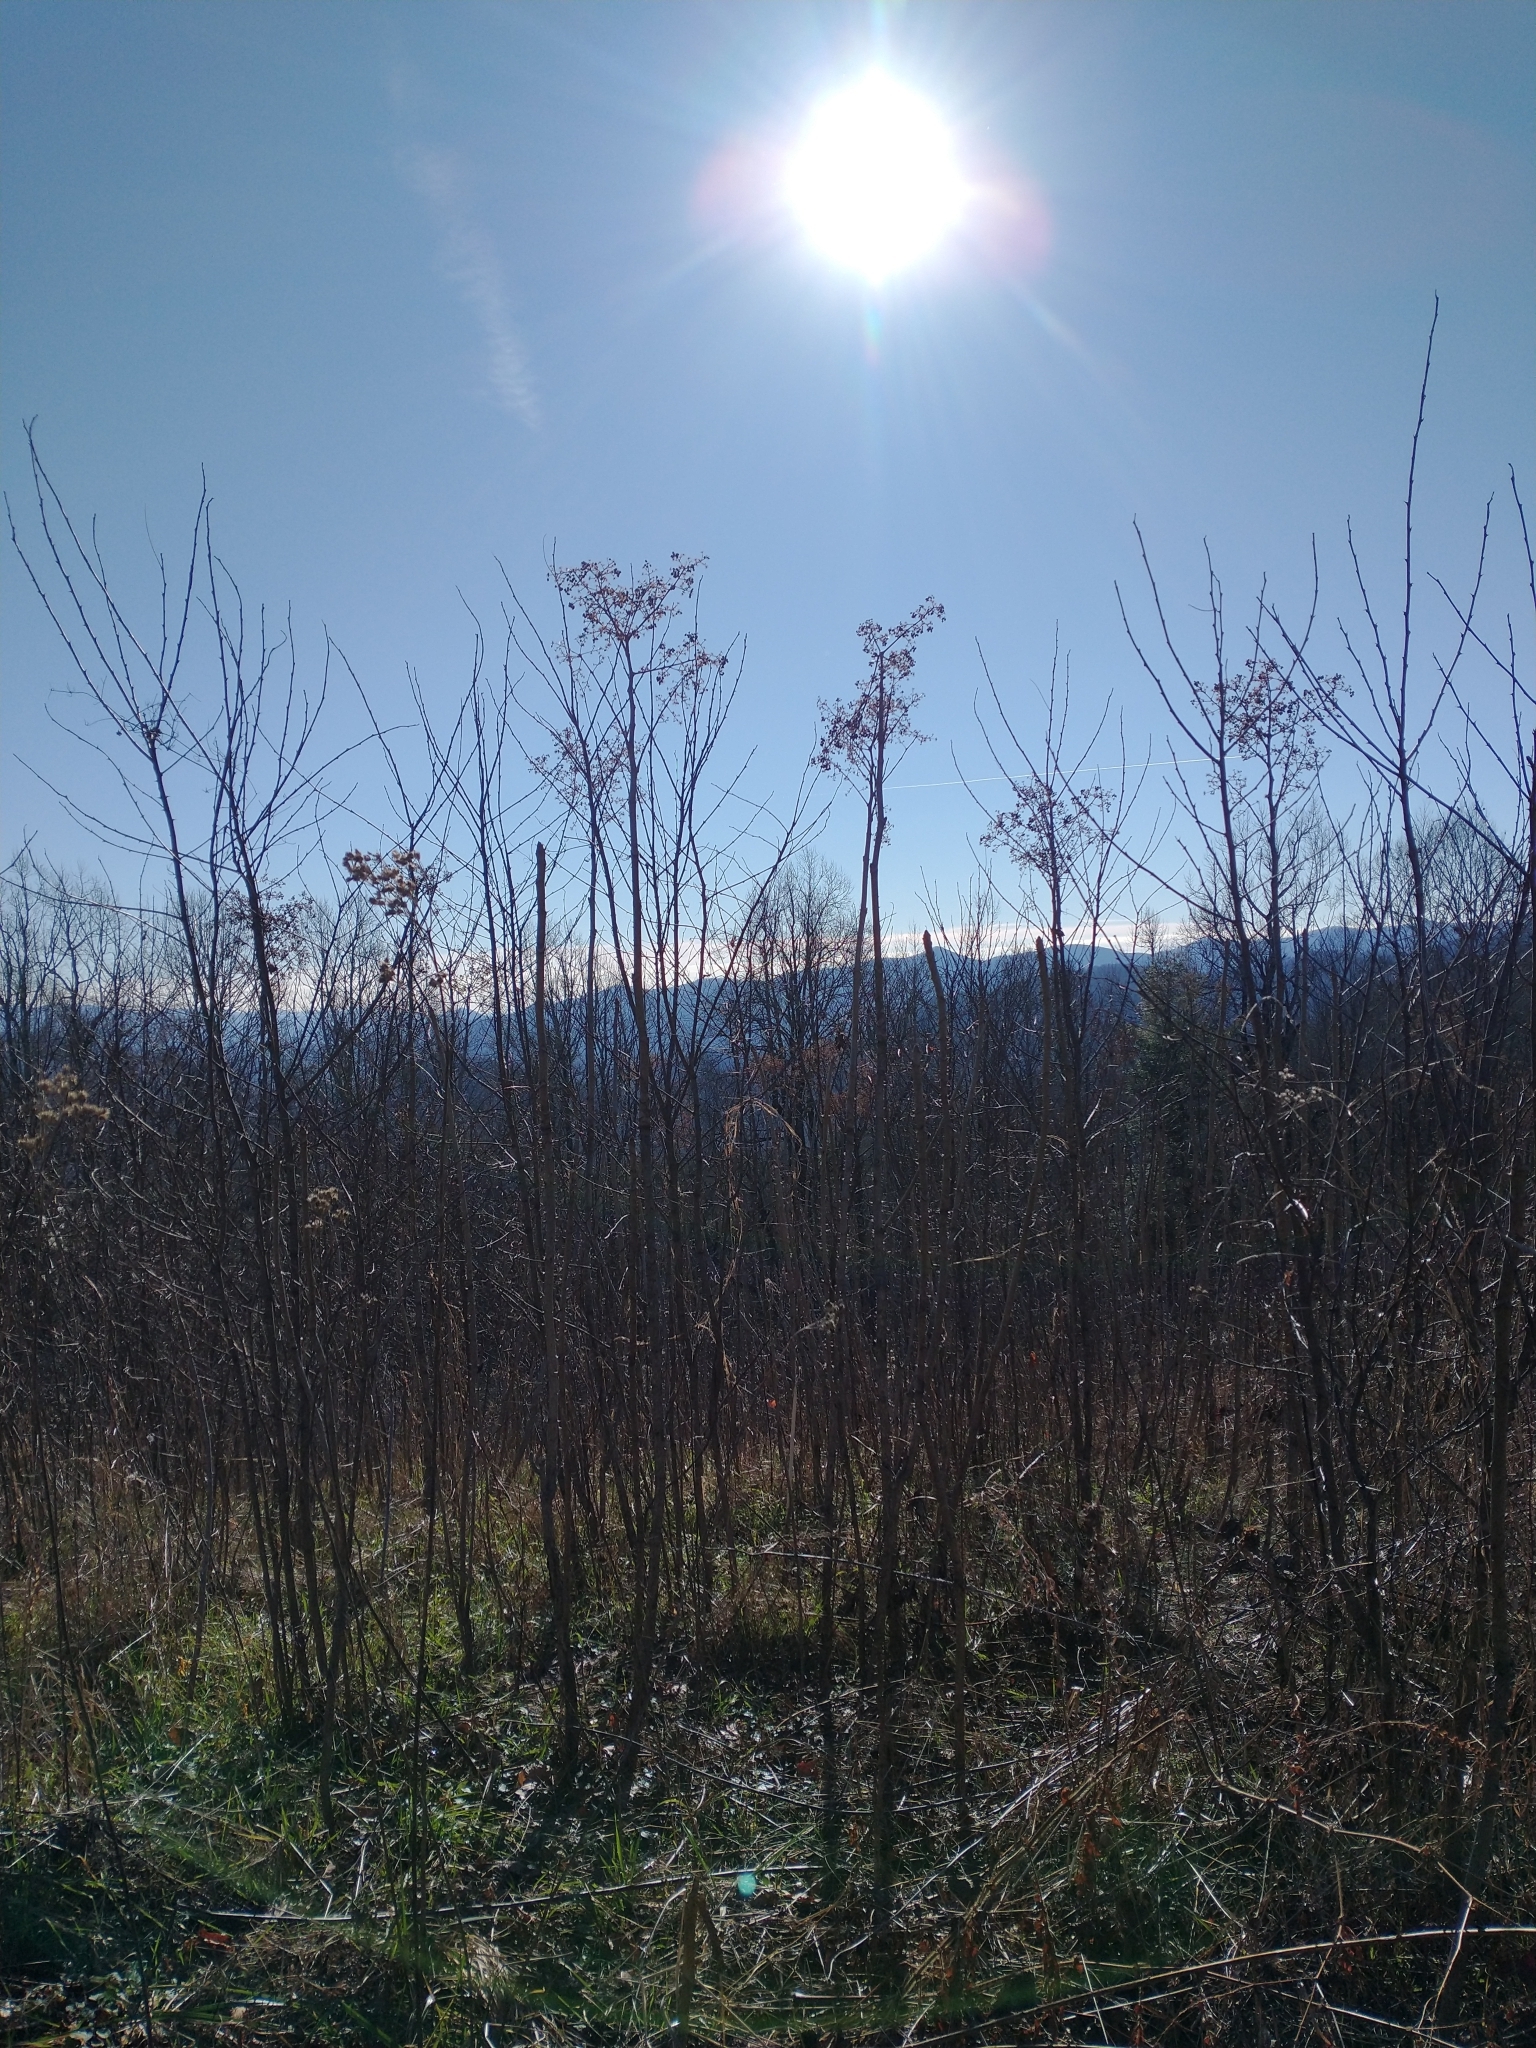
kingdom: Plantae
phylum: Tracheophyta
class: Magnoliopsida
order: Apiales
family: Araliaceae
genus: Aralia
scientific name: Aralia spinosa
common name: Hercules'-club
